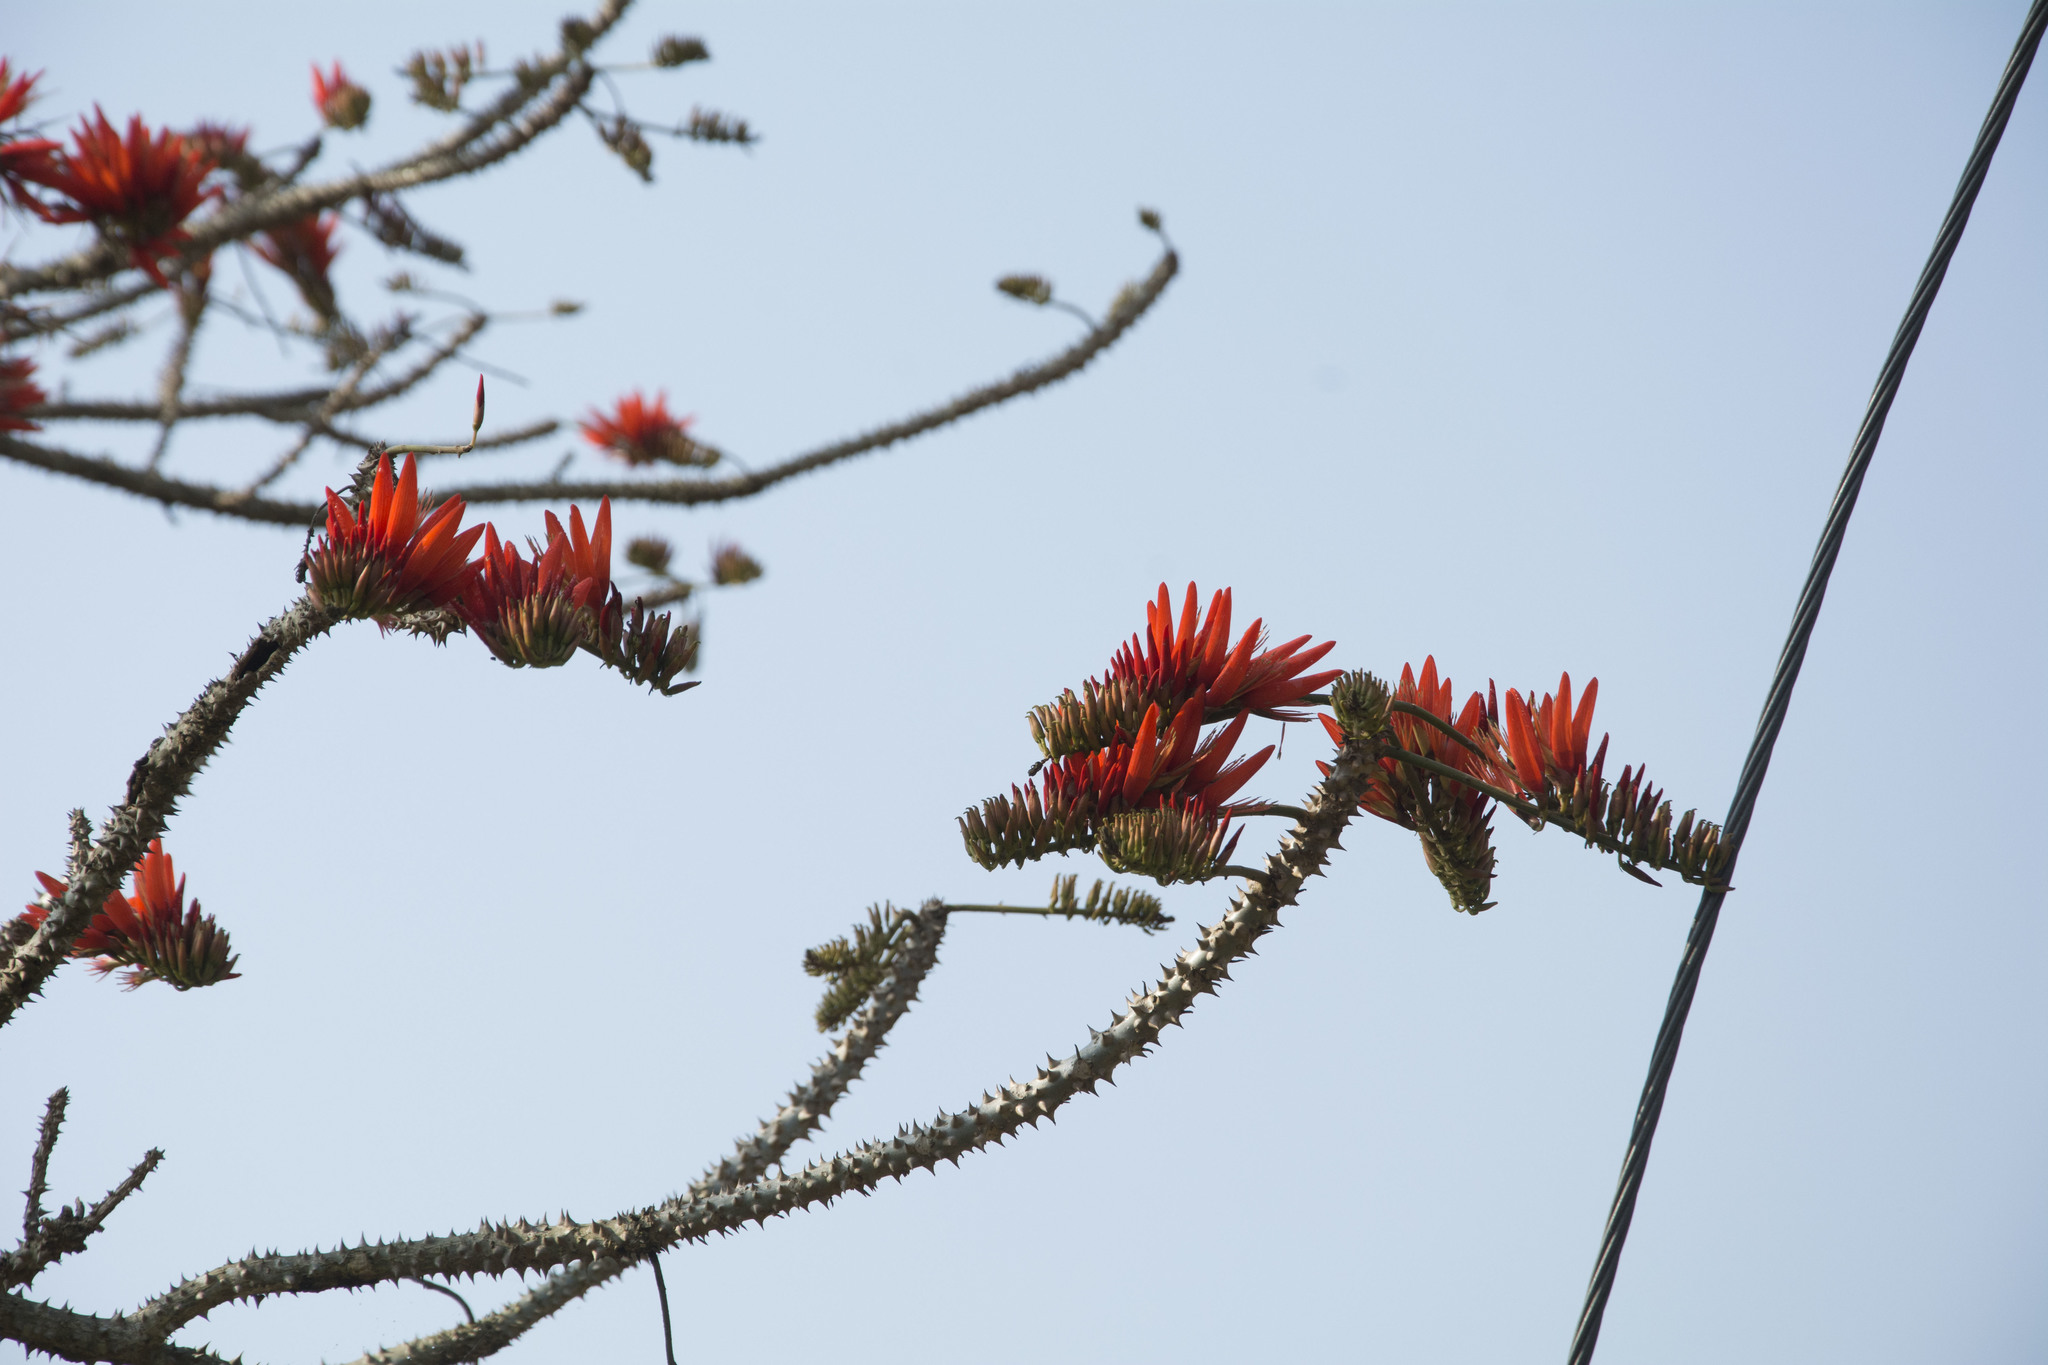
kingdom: Plantae
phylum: Tracheophyta
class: Magnoliopsida
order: Fabales
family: Fabaceae
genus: Erythrina
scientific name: Erythrina stricta
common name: Coraltree
